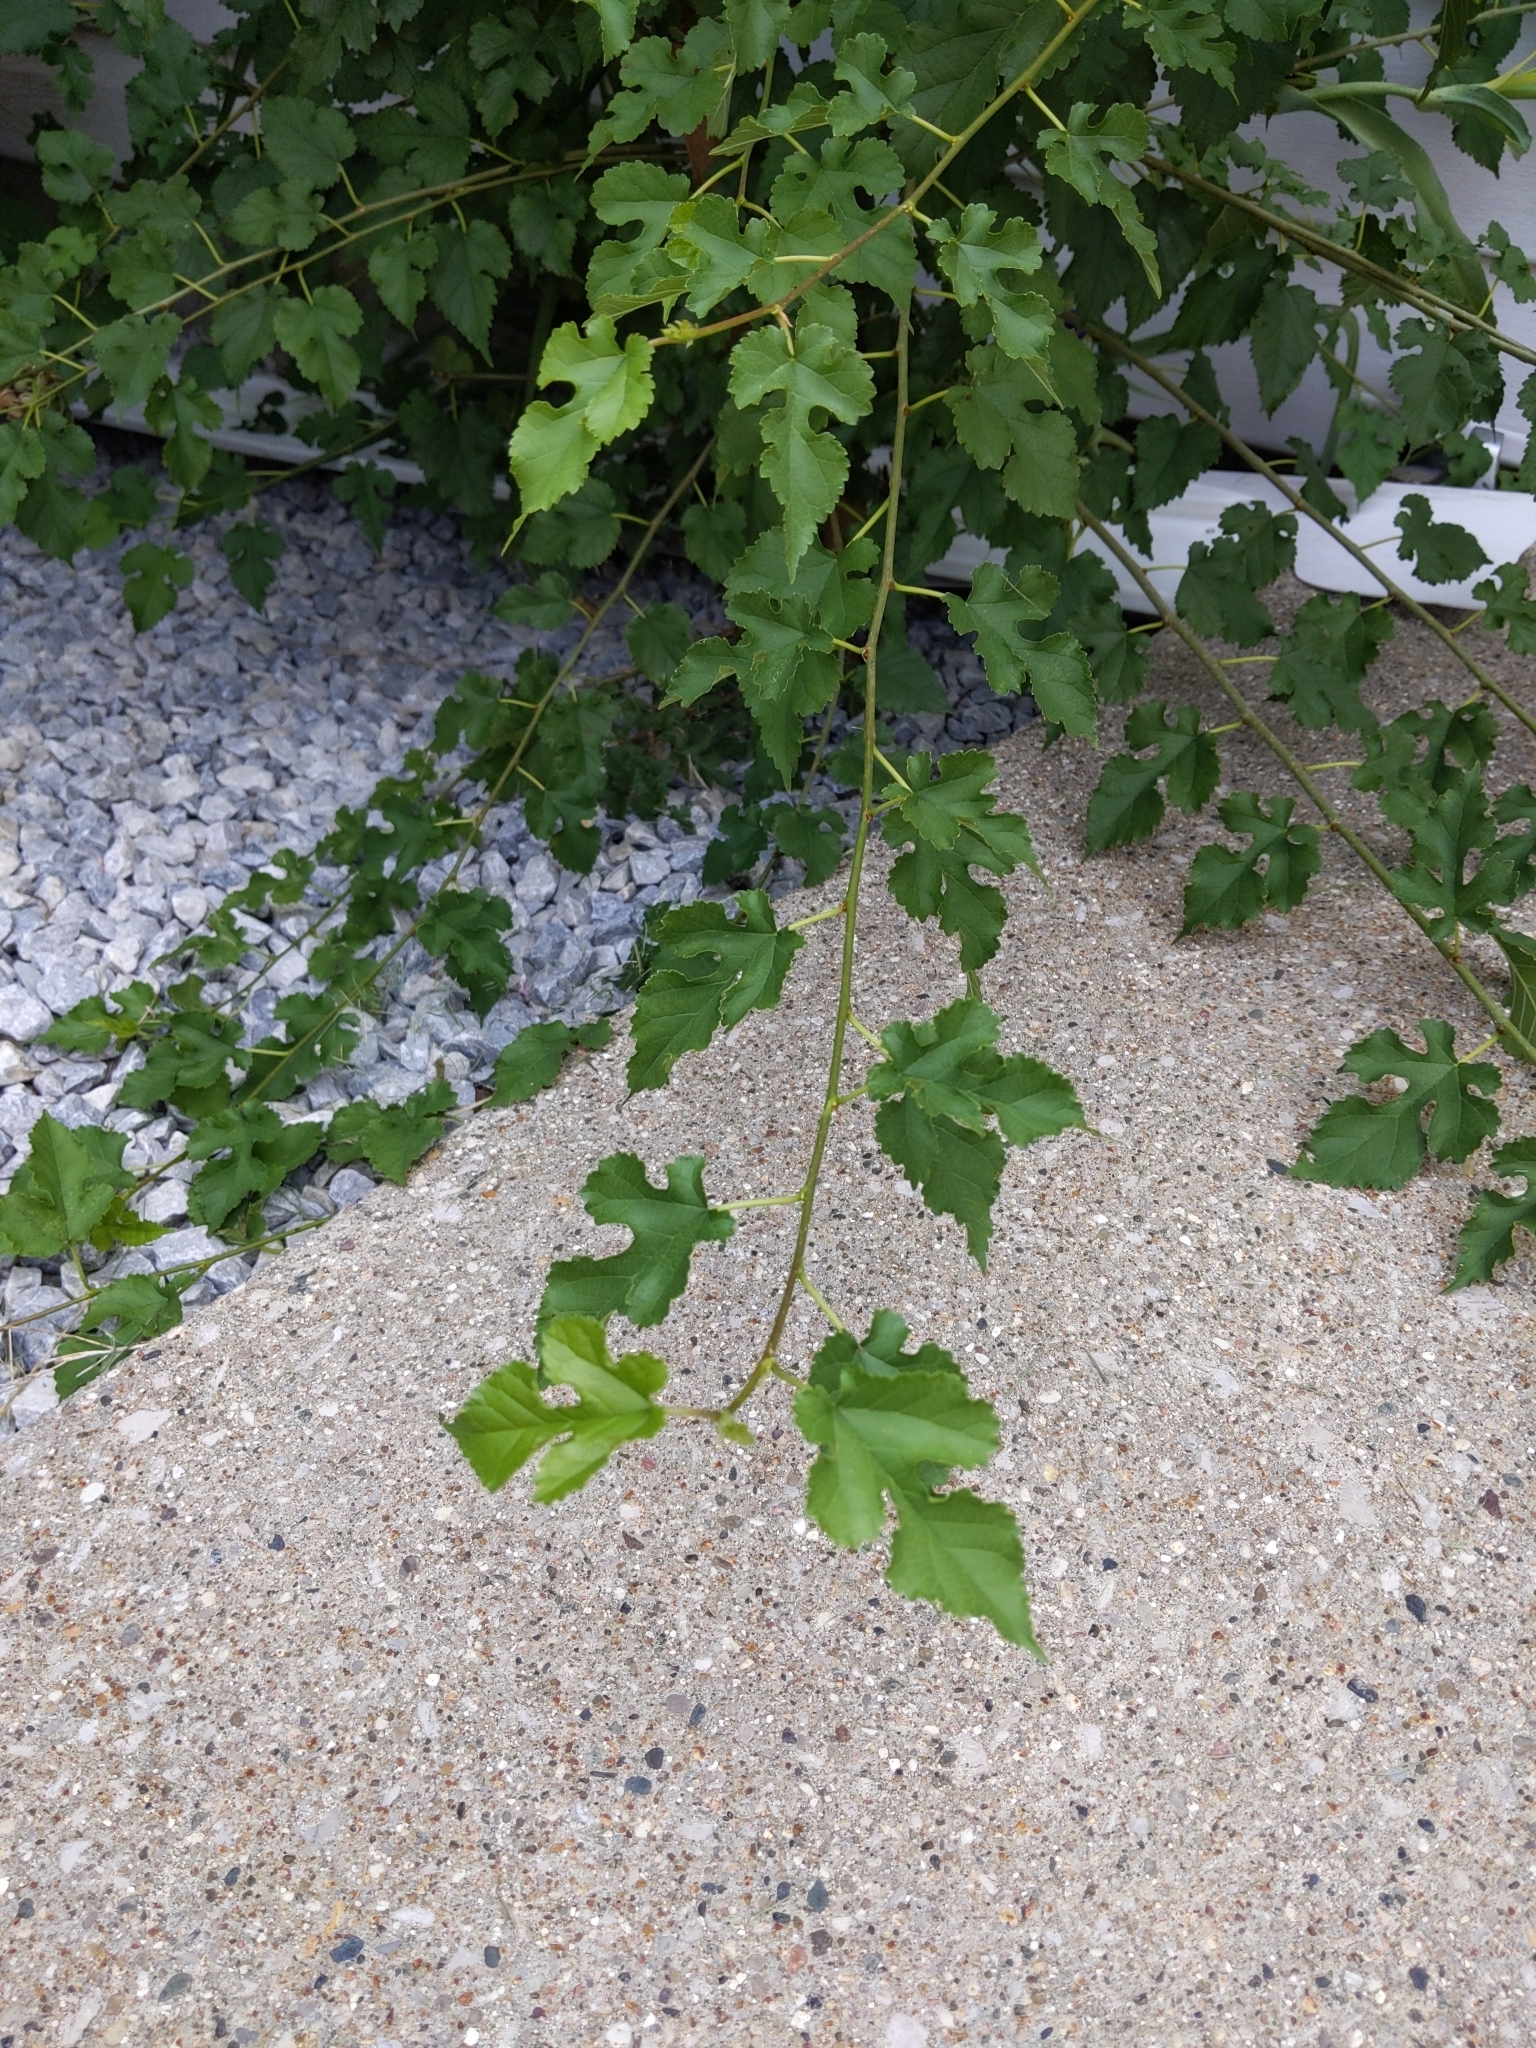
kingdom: Plantae
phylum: Tracheophyta
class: Magnoliopsida
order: Rosales
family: Moraceae
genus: Morus
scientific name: Morus alba
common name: White mulberry
